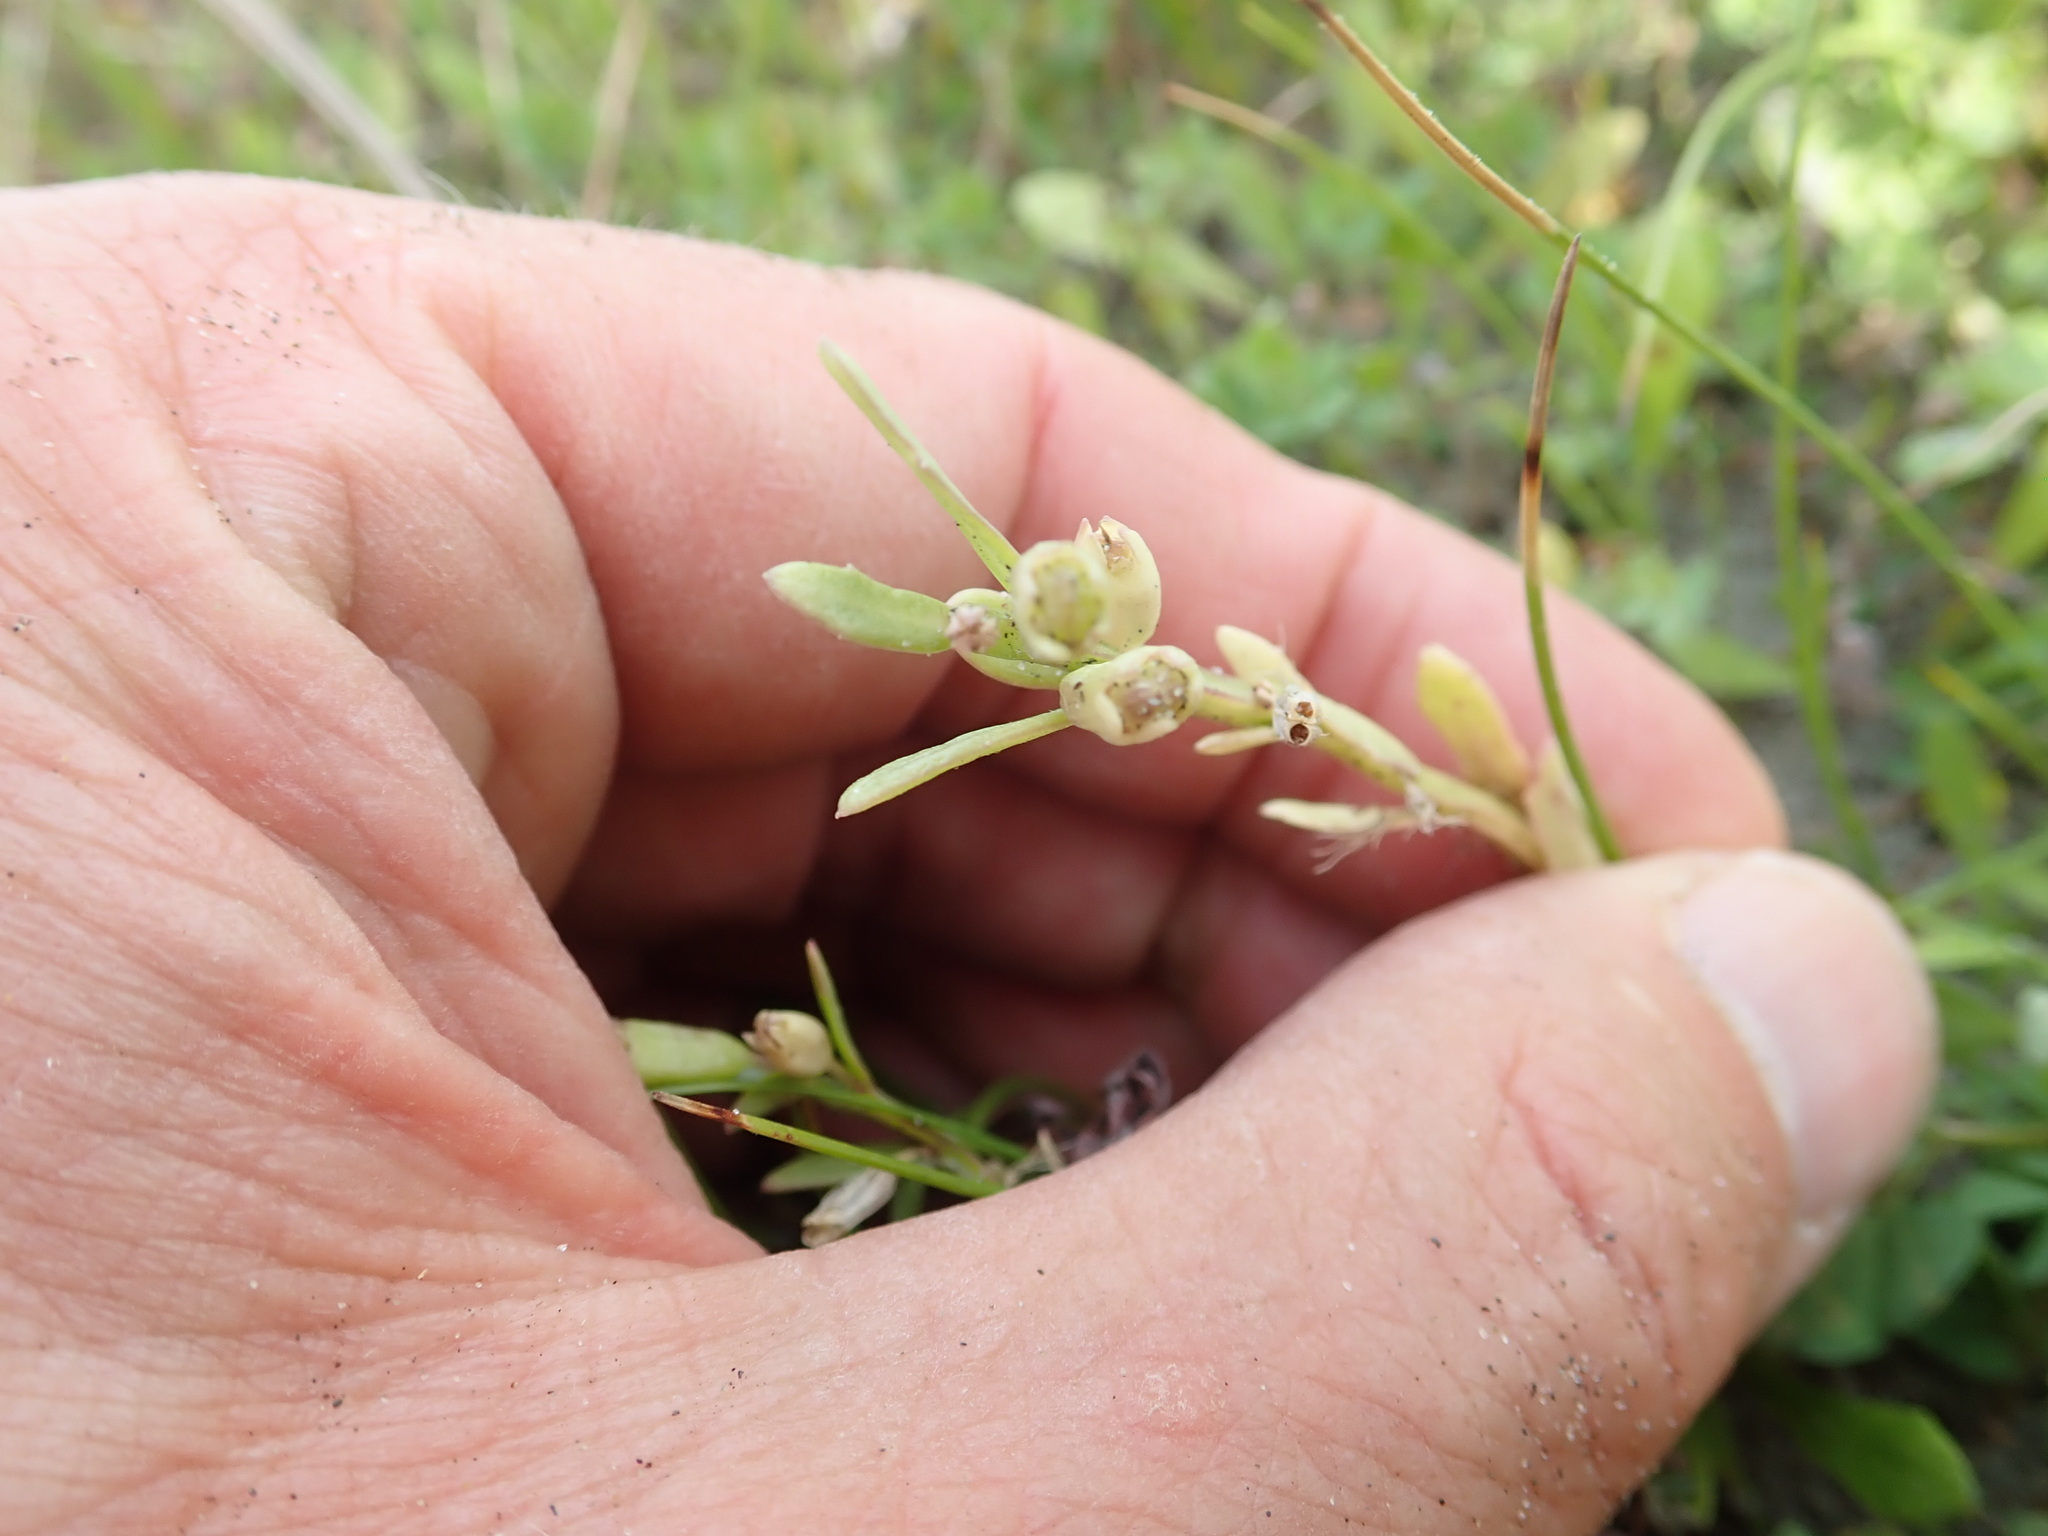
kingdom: Plantae
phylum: Tracheophyta
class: Magnoliopsida
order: Asterales
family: Campanulaceae
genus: Lobelia
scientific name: Lobelia anceps
